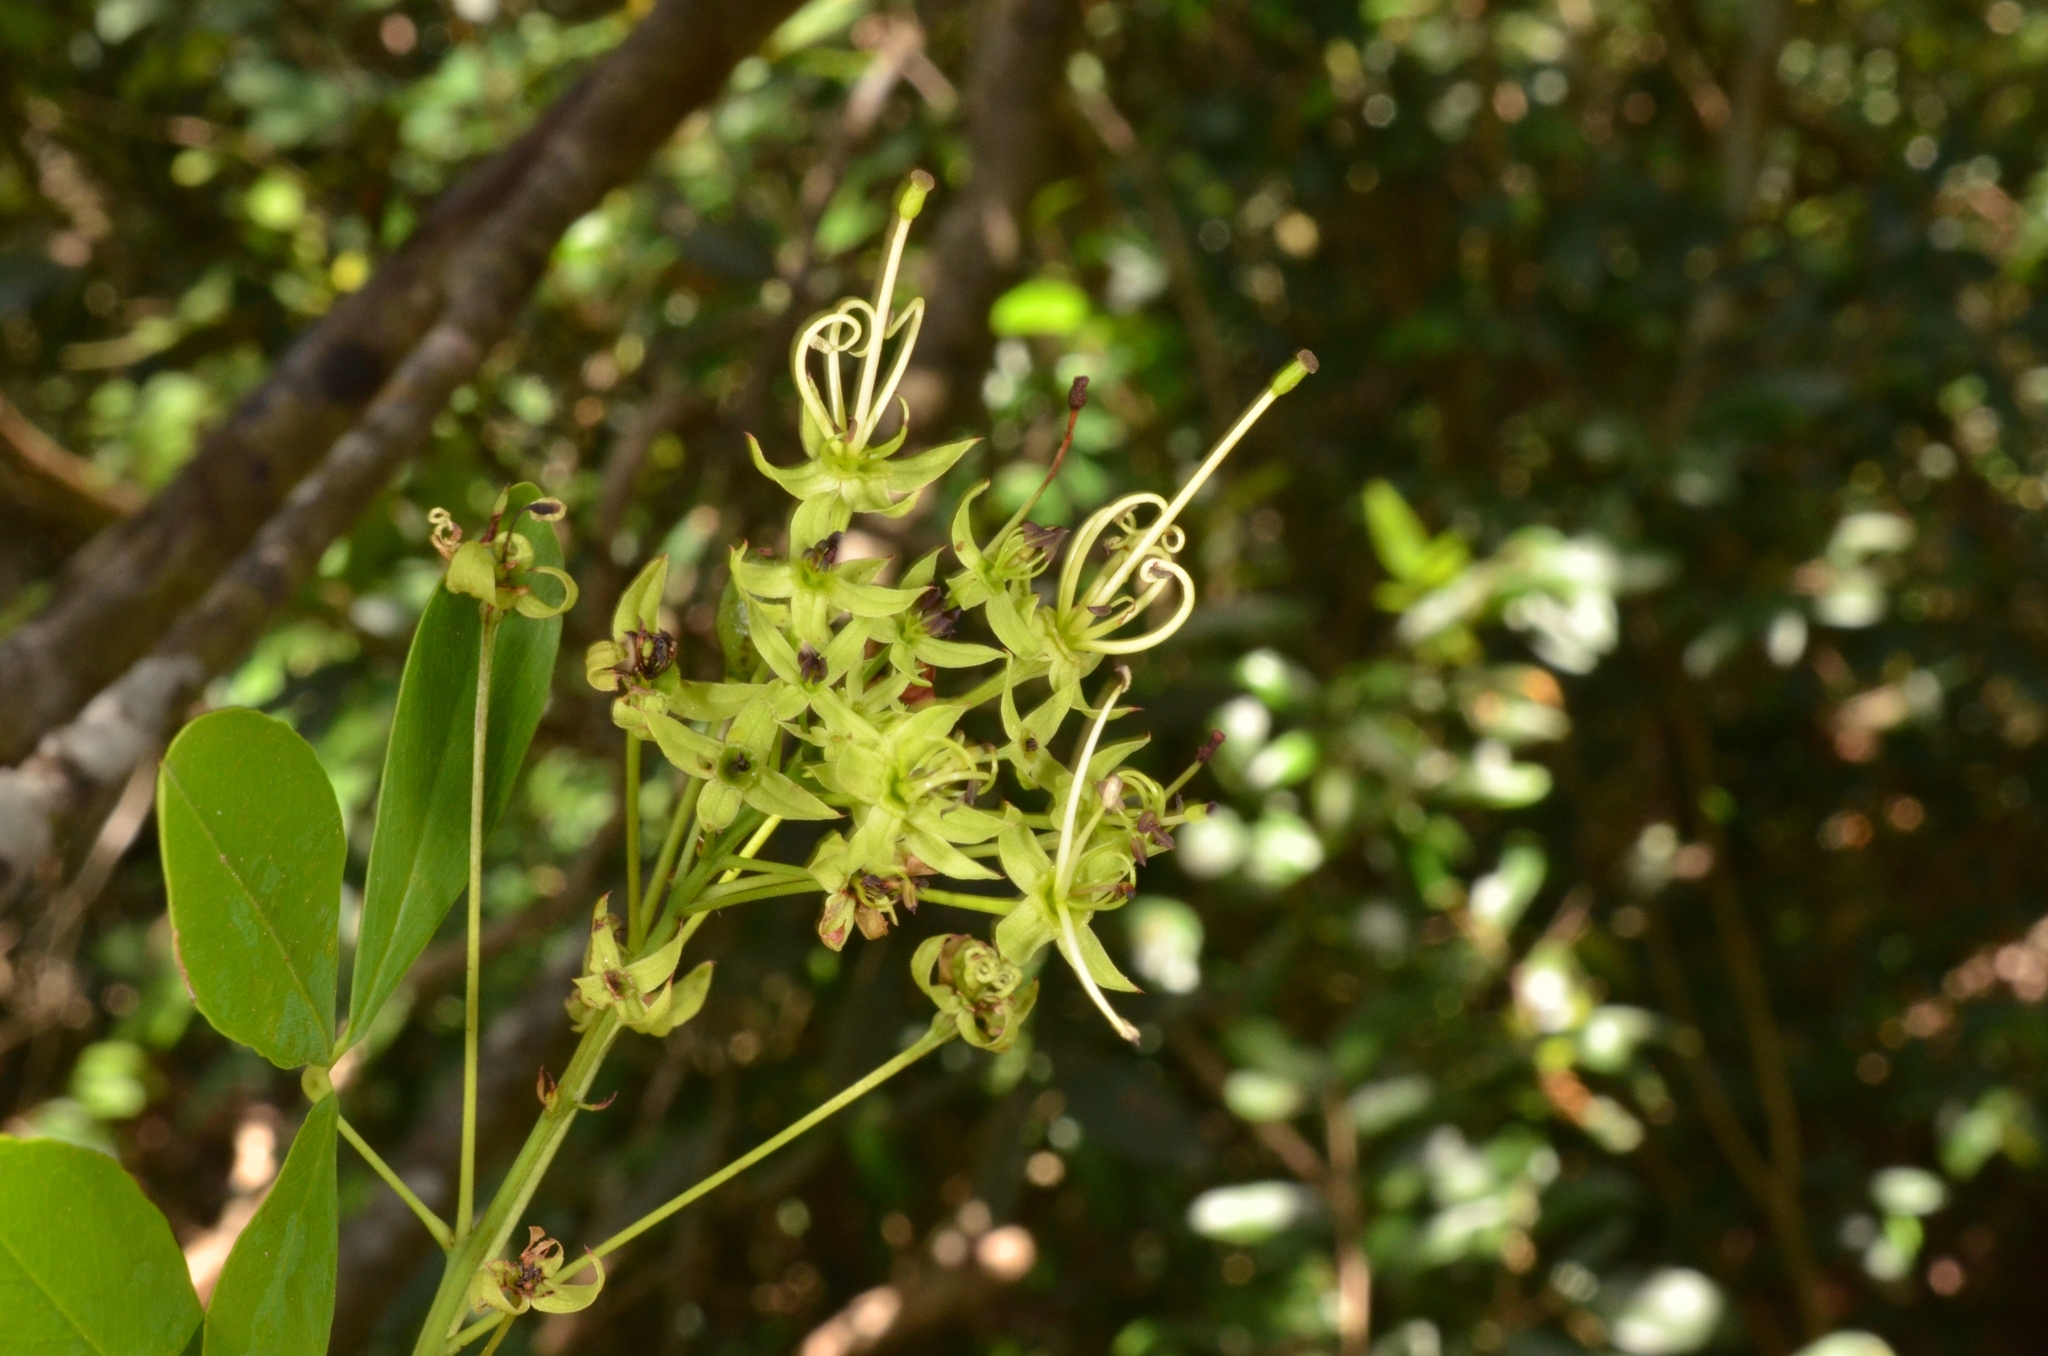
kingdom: Plantae
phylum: Tracheophyta
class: Magnoliopsida
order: Brassicales
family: Capparaceae
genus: Maerua
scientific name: Maerua siamensis
